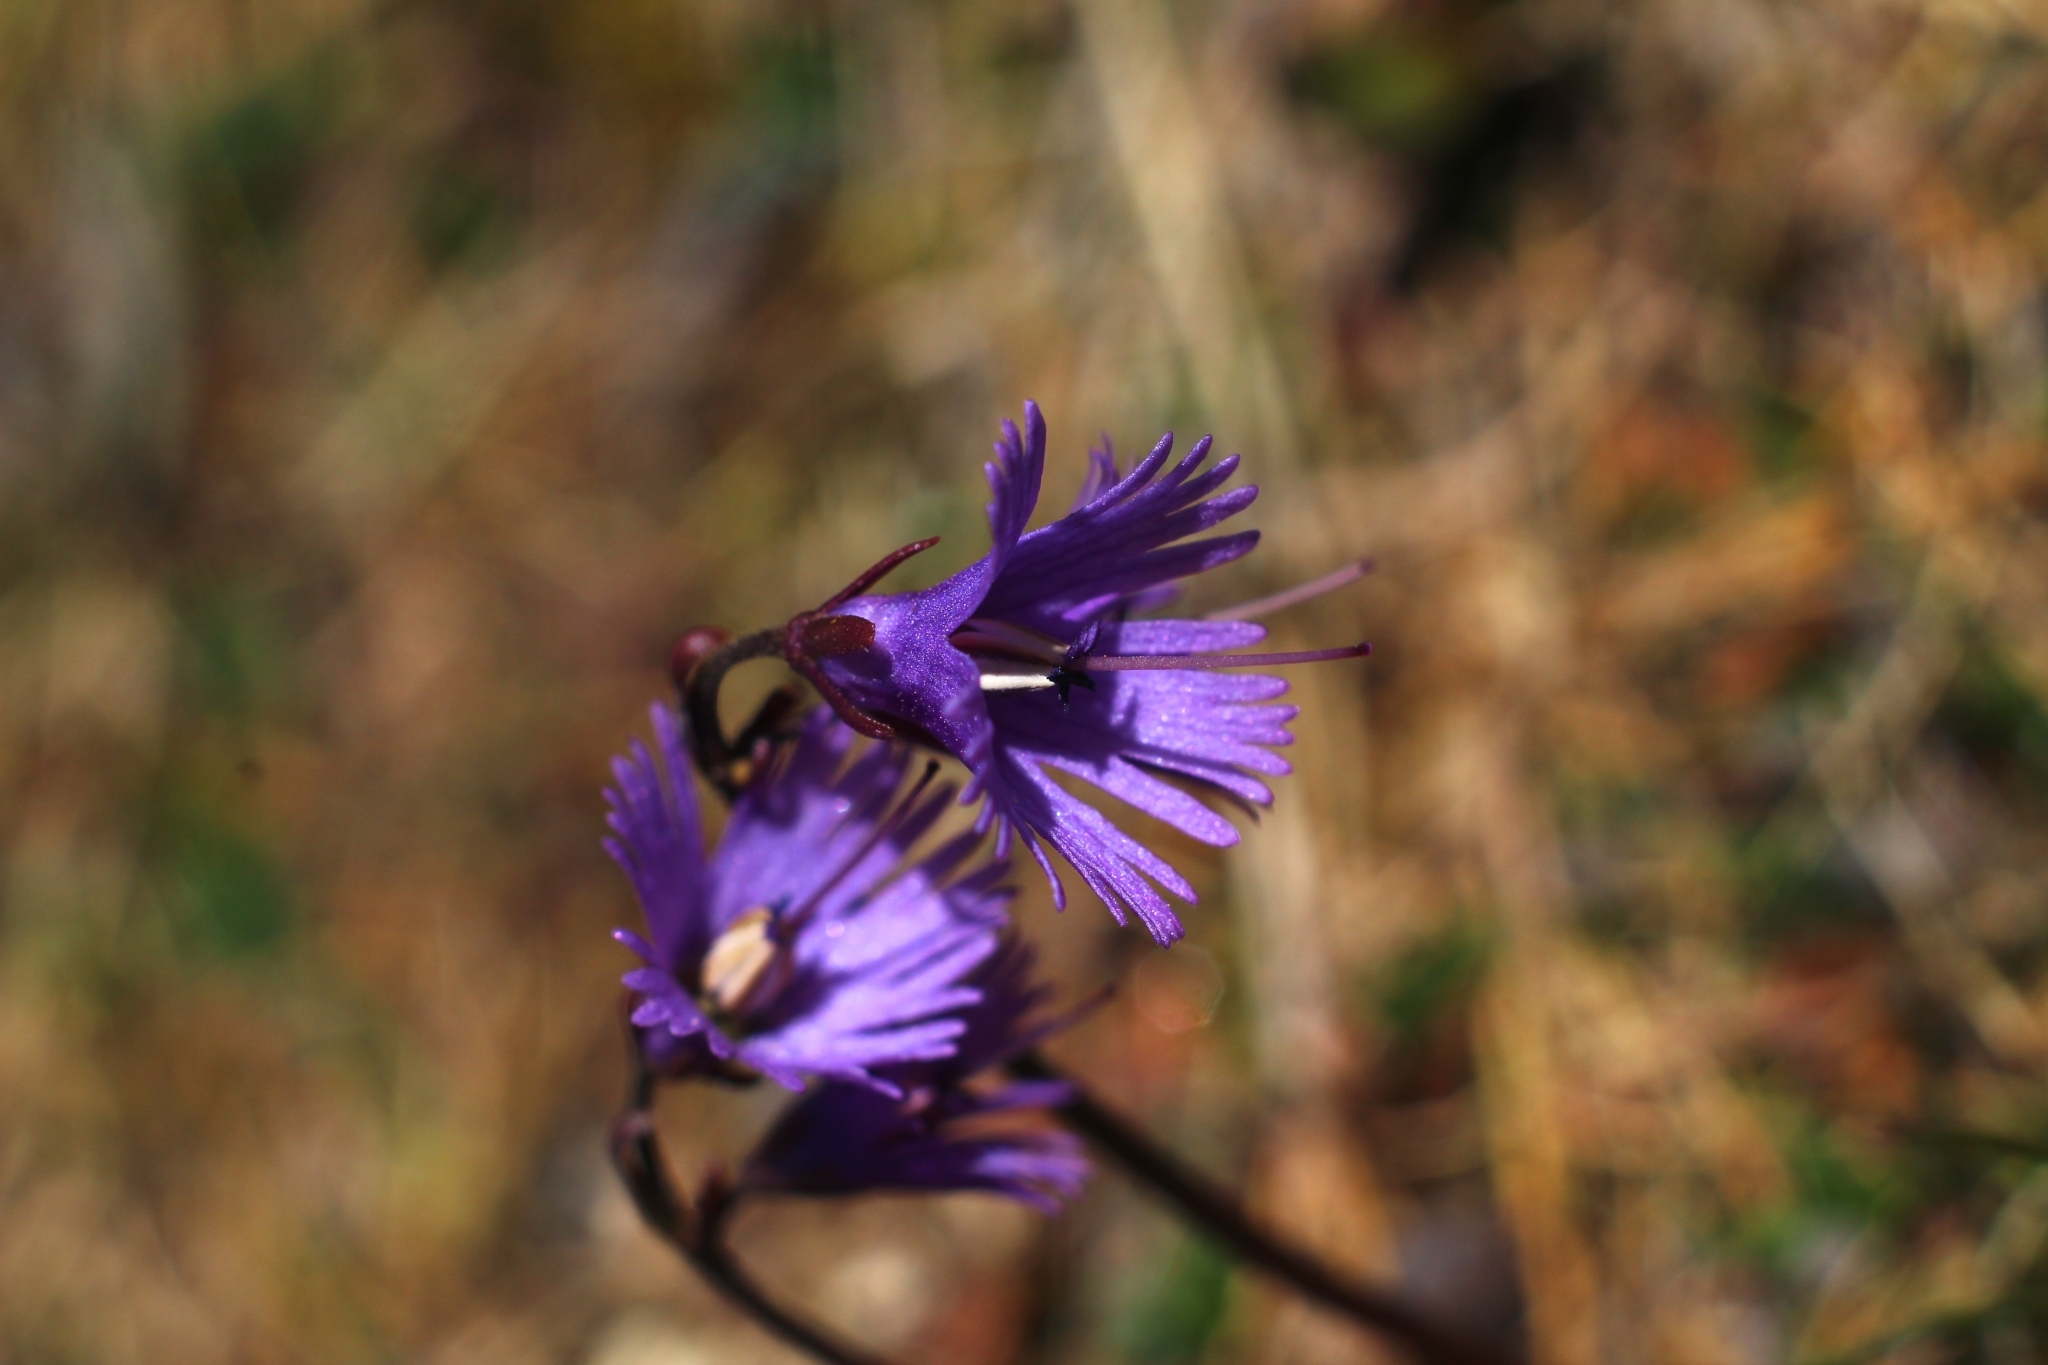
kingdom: Plantae
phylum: Tracheophyta
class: Magnoliopsida
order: Ericales
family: Primulaceae
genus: Soldanella
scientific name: Soldanella alpina
